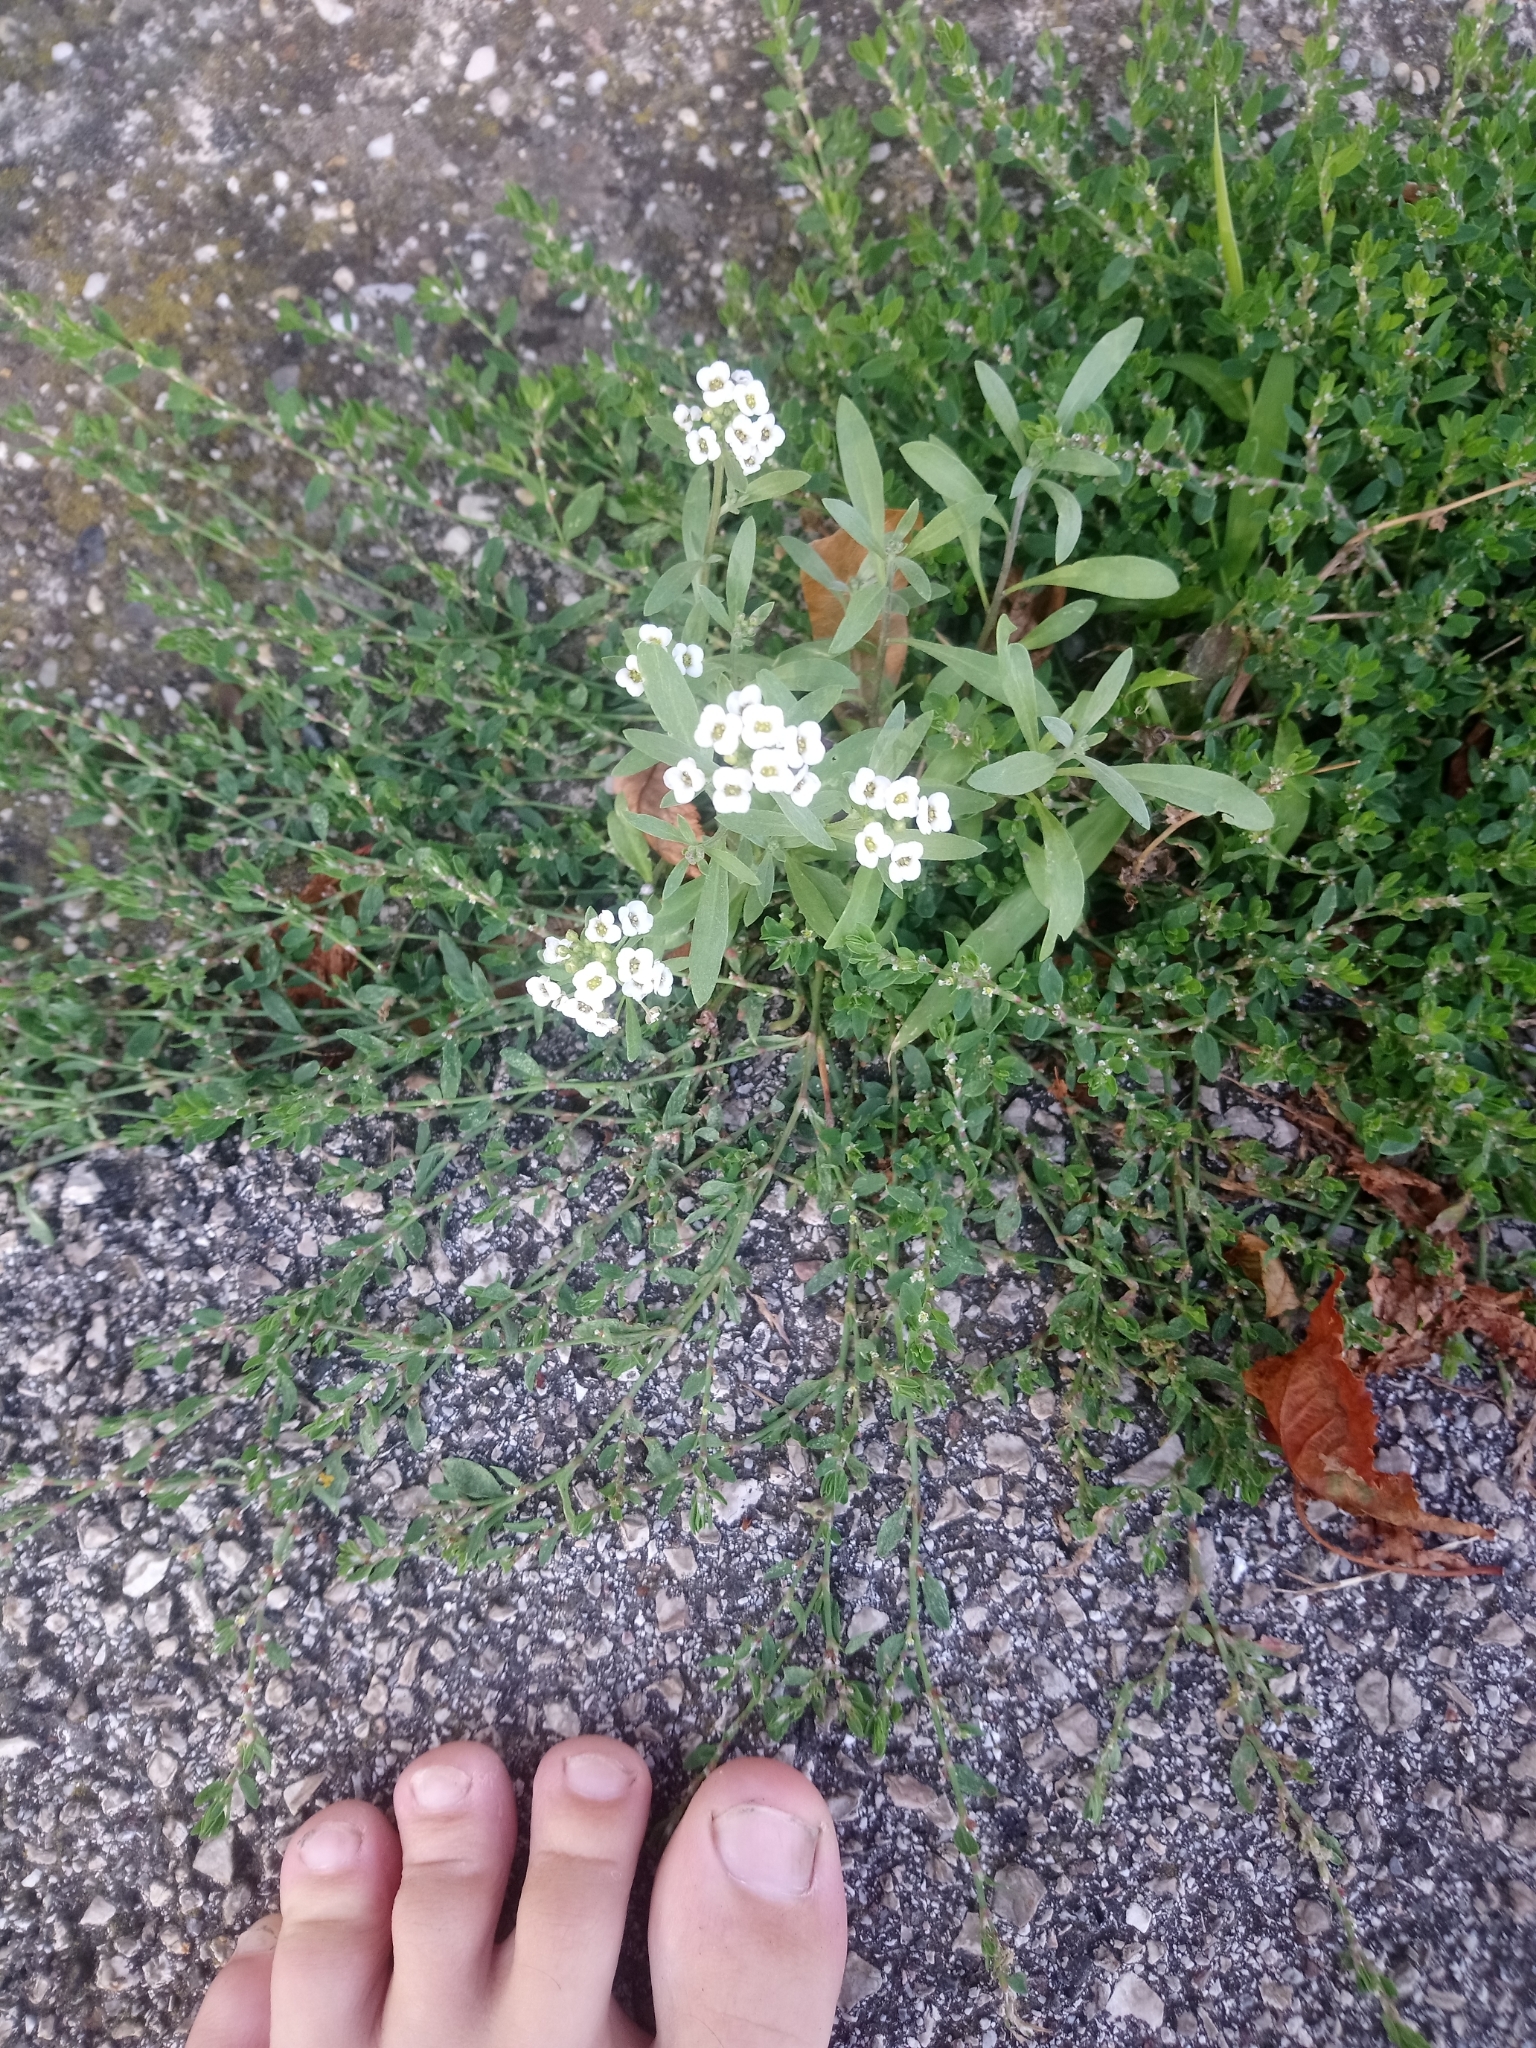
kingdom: Plantae
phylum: Tracheophyta
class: Magnoliopsida
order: Brassicales
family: Brassicaceae
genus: Lobularia
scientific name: Lobularia maritima
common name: Sweet alison
